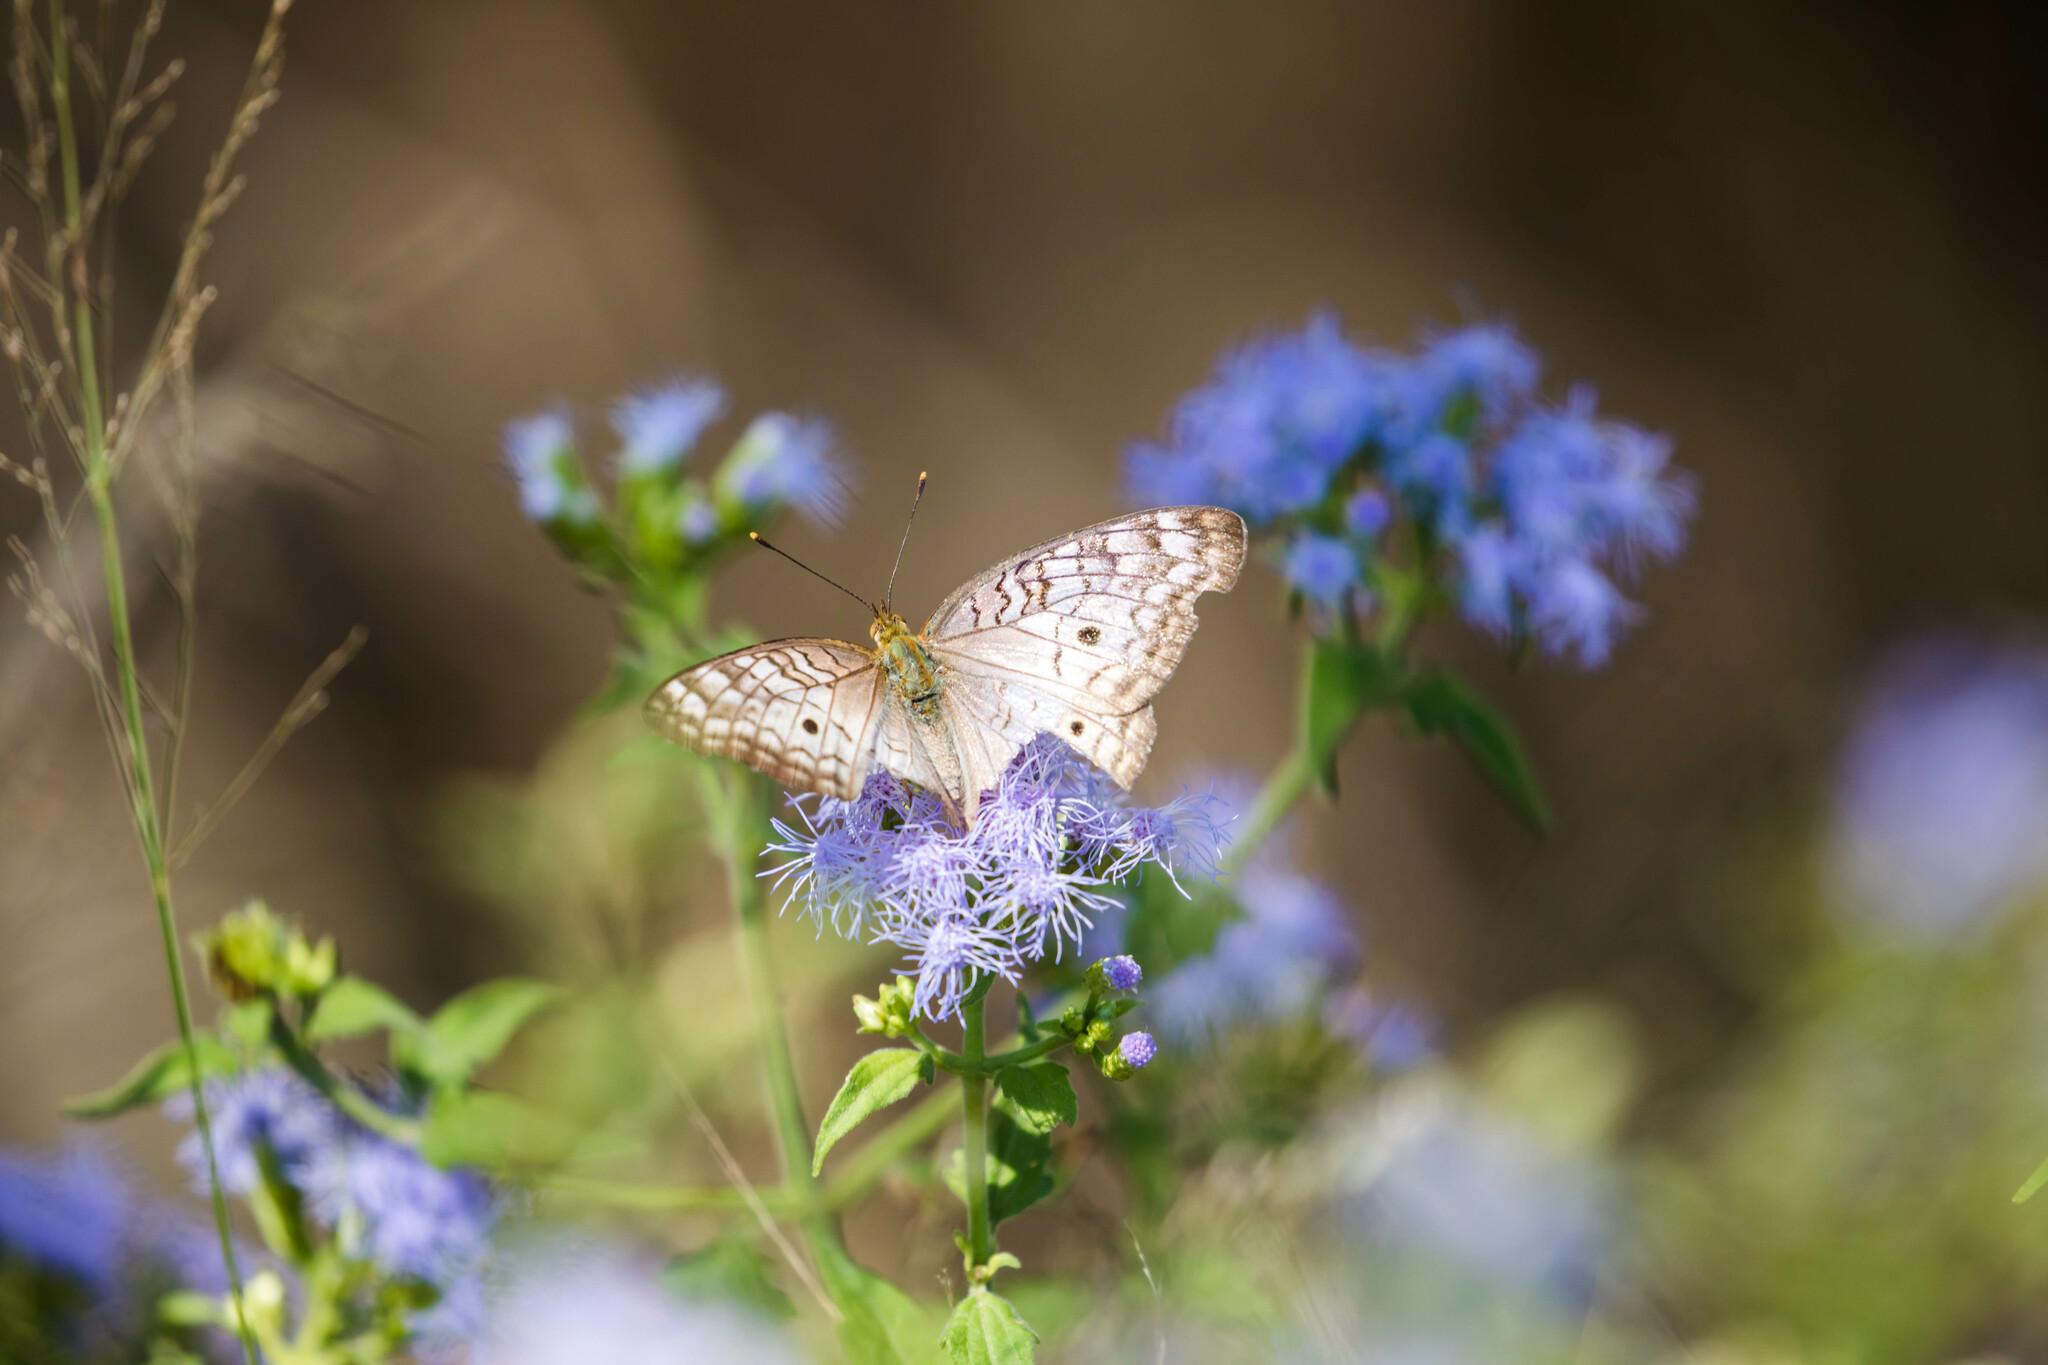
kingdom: Animalia
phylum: Arthropoda
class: Insecta
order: Lepidoptera
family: Nymphalidae
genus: Anartia
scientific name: Anartia jatrophae
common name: White peacock
